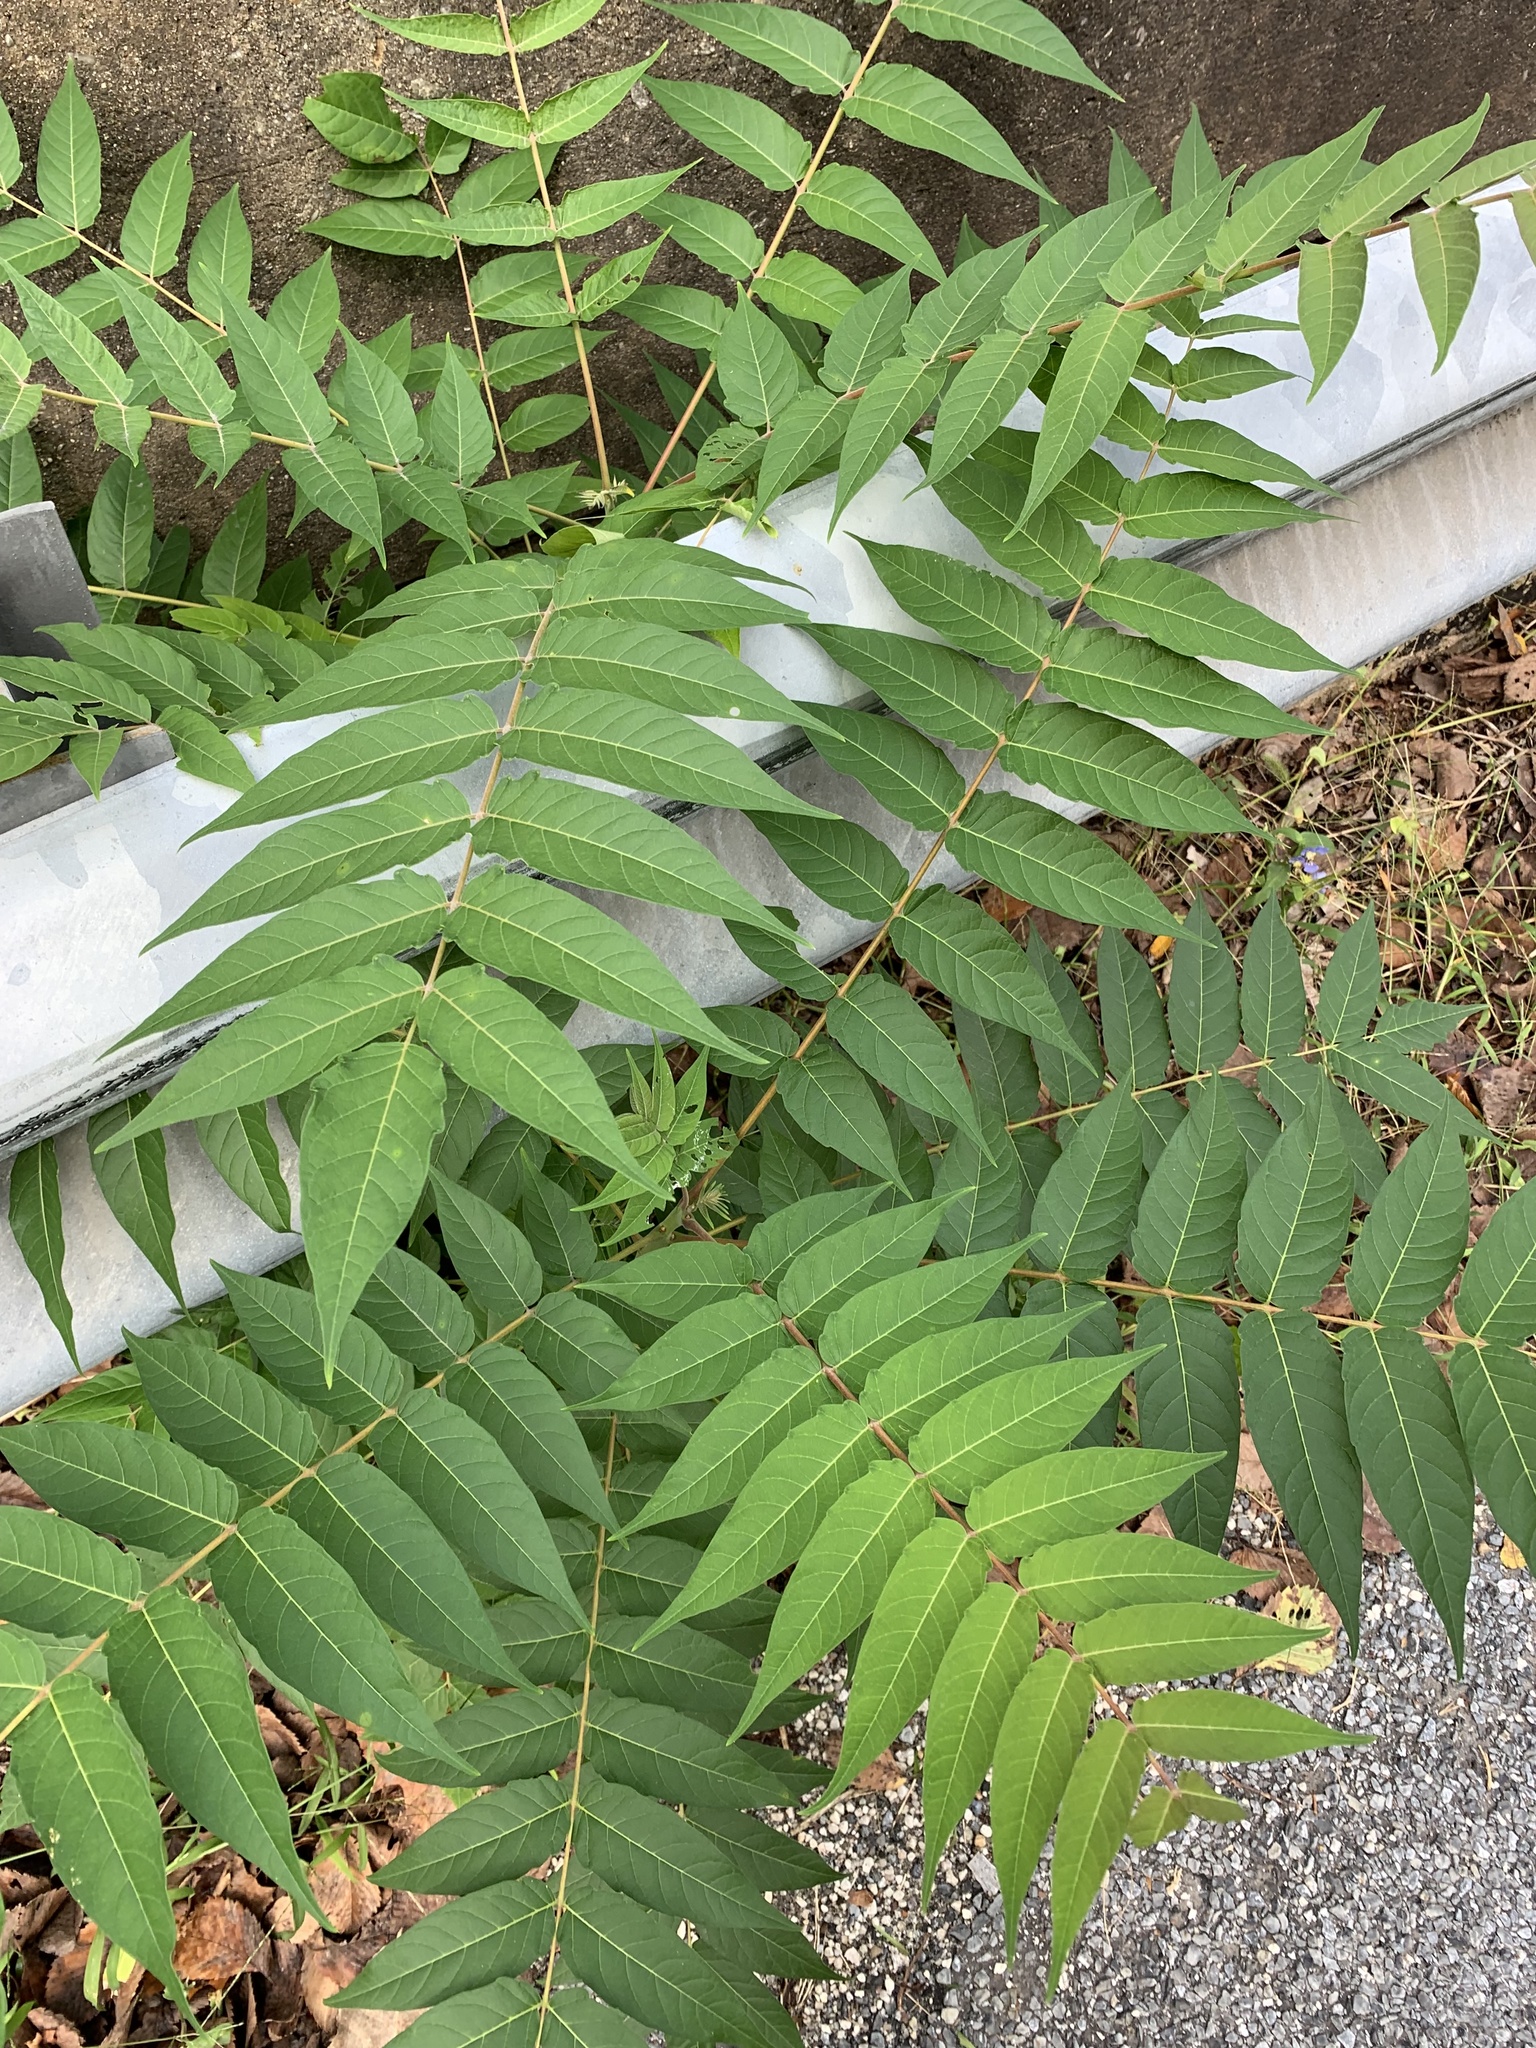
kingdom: Plantae
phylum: Tracheophyta
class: Magnoliopsida
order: Sapindales
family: Simaroubaceae
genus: Ailanthus
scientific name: Ailanthus altissima
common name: Tree-of-heaven
